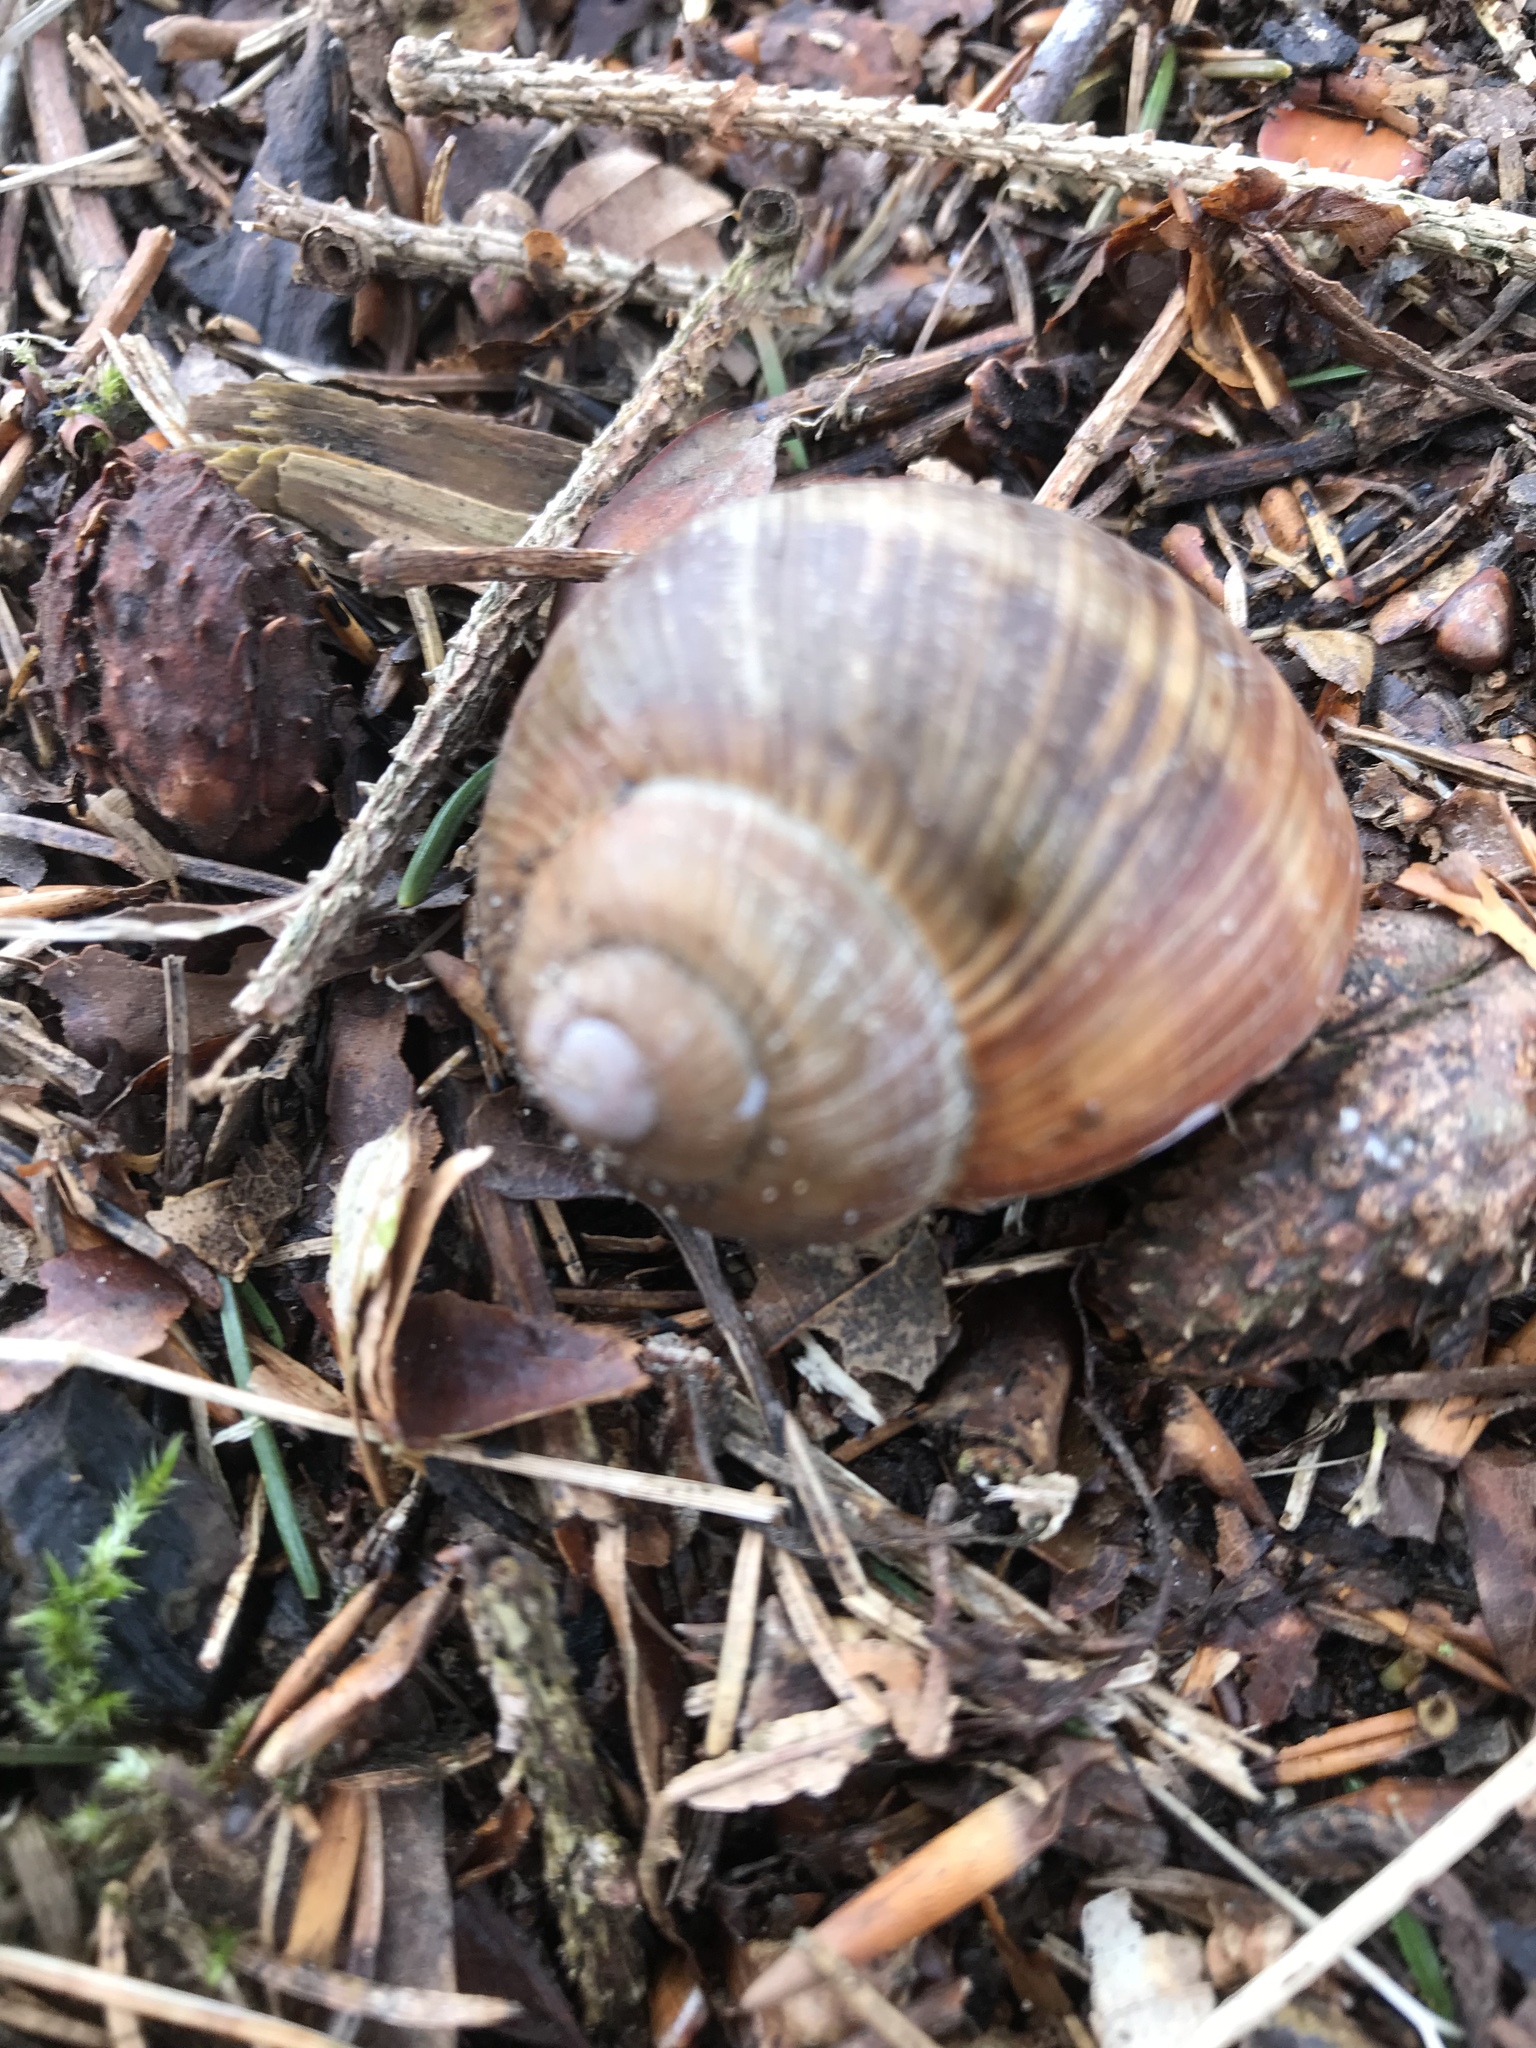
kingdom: Animalia
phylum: Mollusca
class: Gastropoda
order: Stylommatophora
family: Helicidae
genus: Helix
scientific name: Helix pomatia
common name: Roman snail
